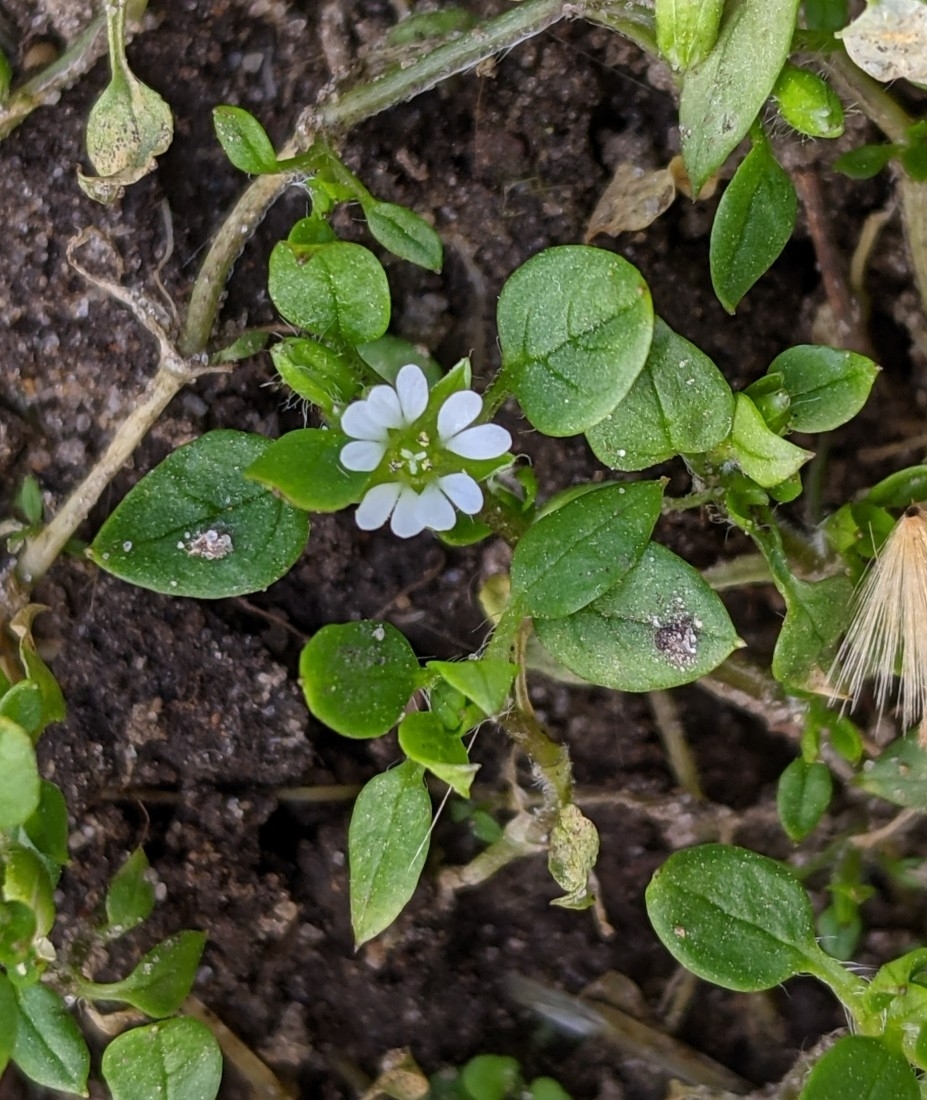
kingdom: Plantae
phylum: Tracheophyta
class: Magnoliopsida
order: Caryophyllales
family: Caryophyllaceae
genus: Stellaria
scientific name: Stellaria media
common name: Common chickweed
